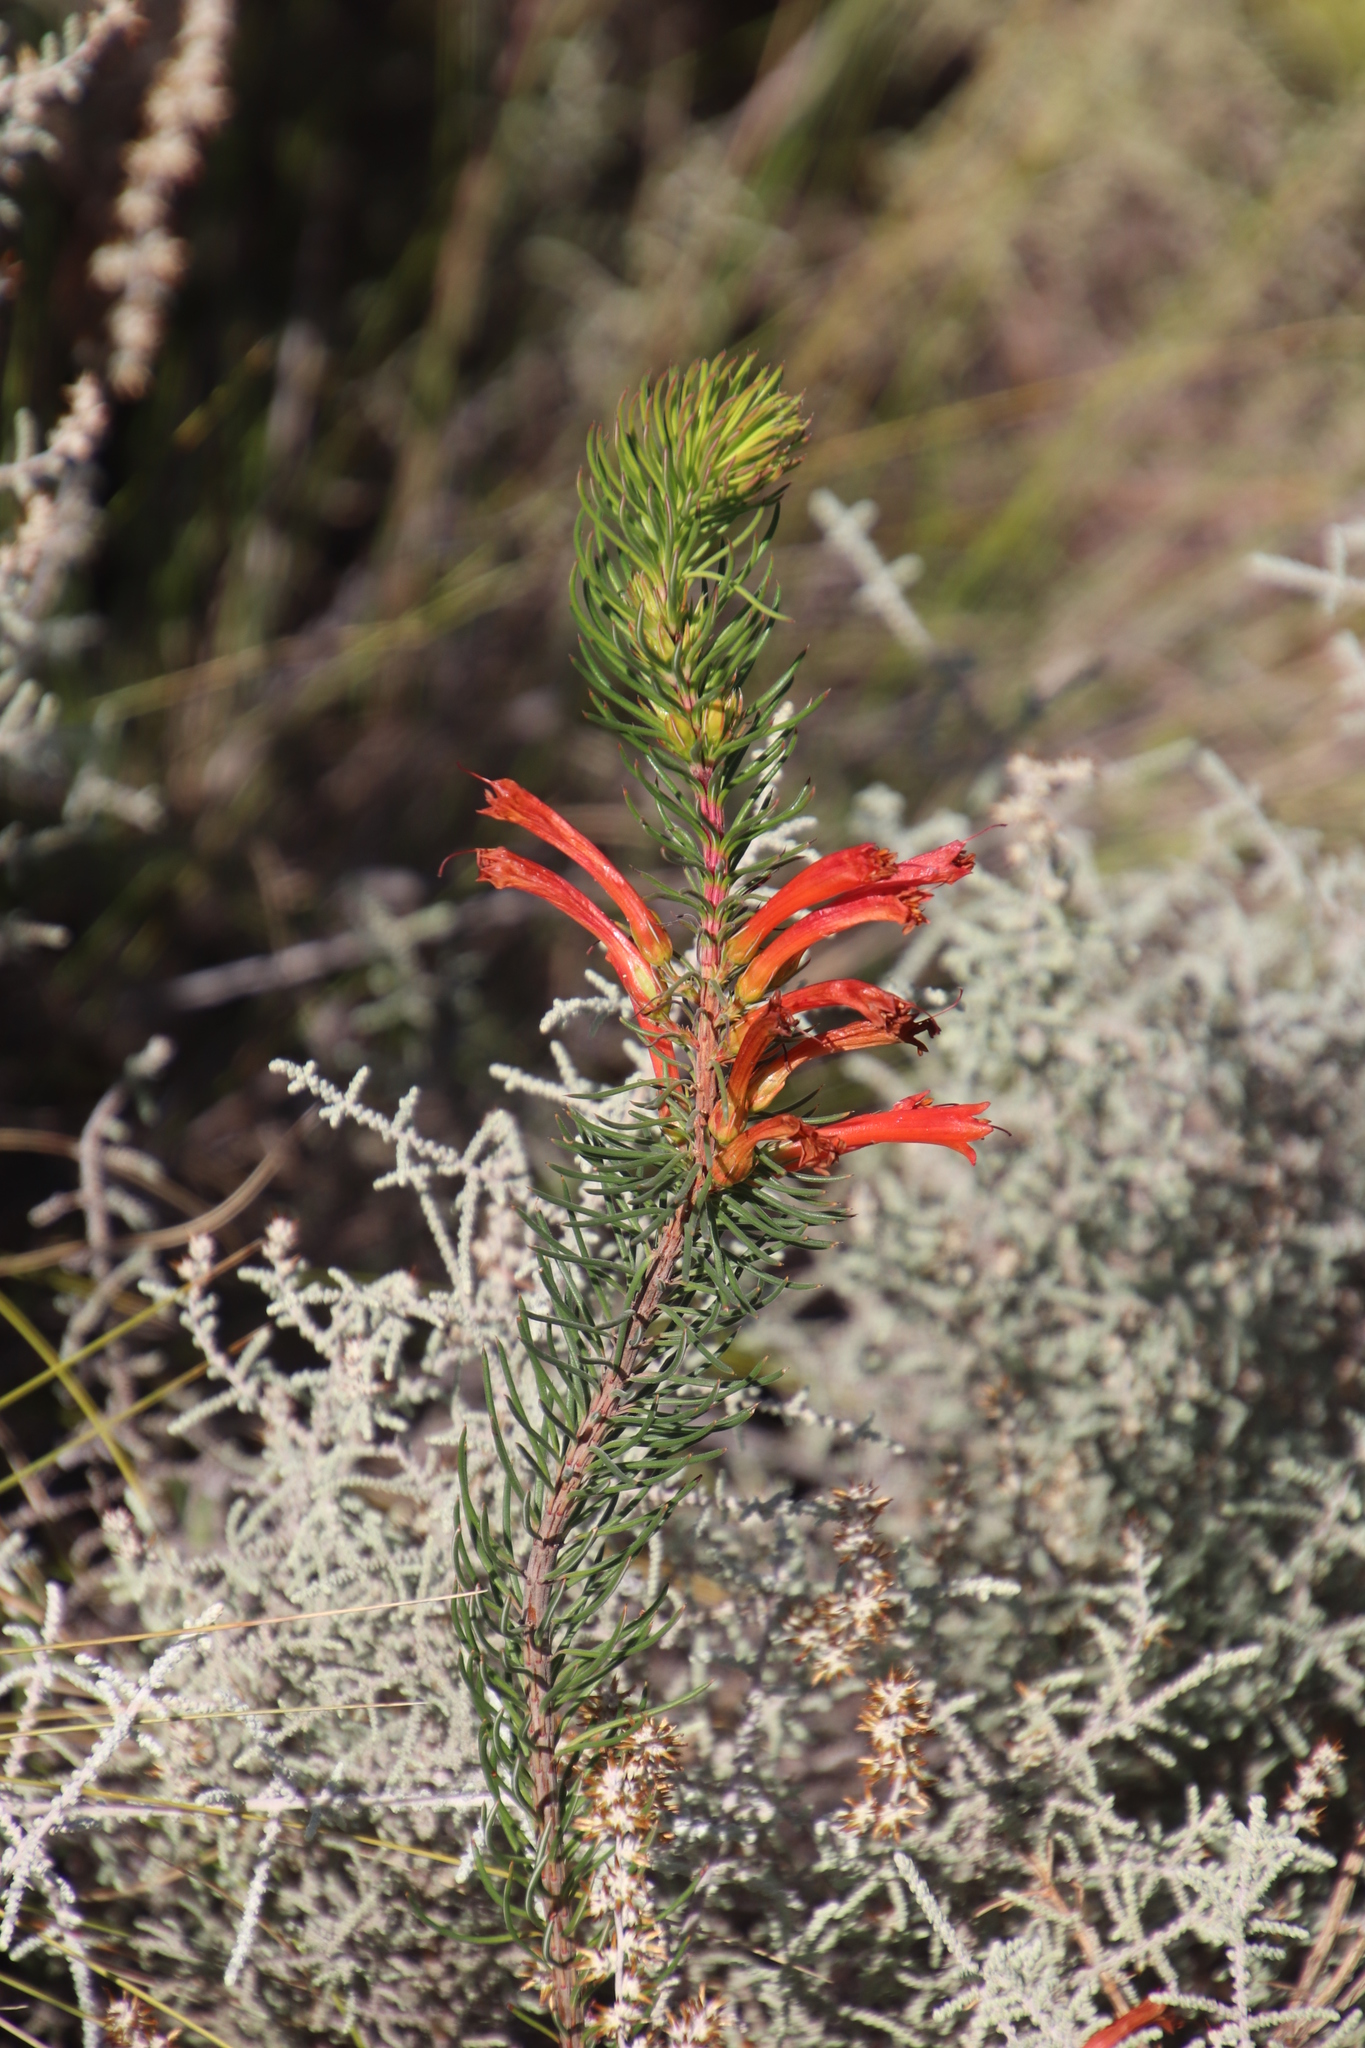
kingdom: Plantae
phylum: Tracheophyta
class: Magnoliopsida
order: Ericales
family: Ericaceae
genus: Erica
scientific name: Erica grandiflora
